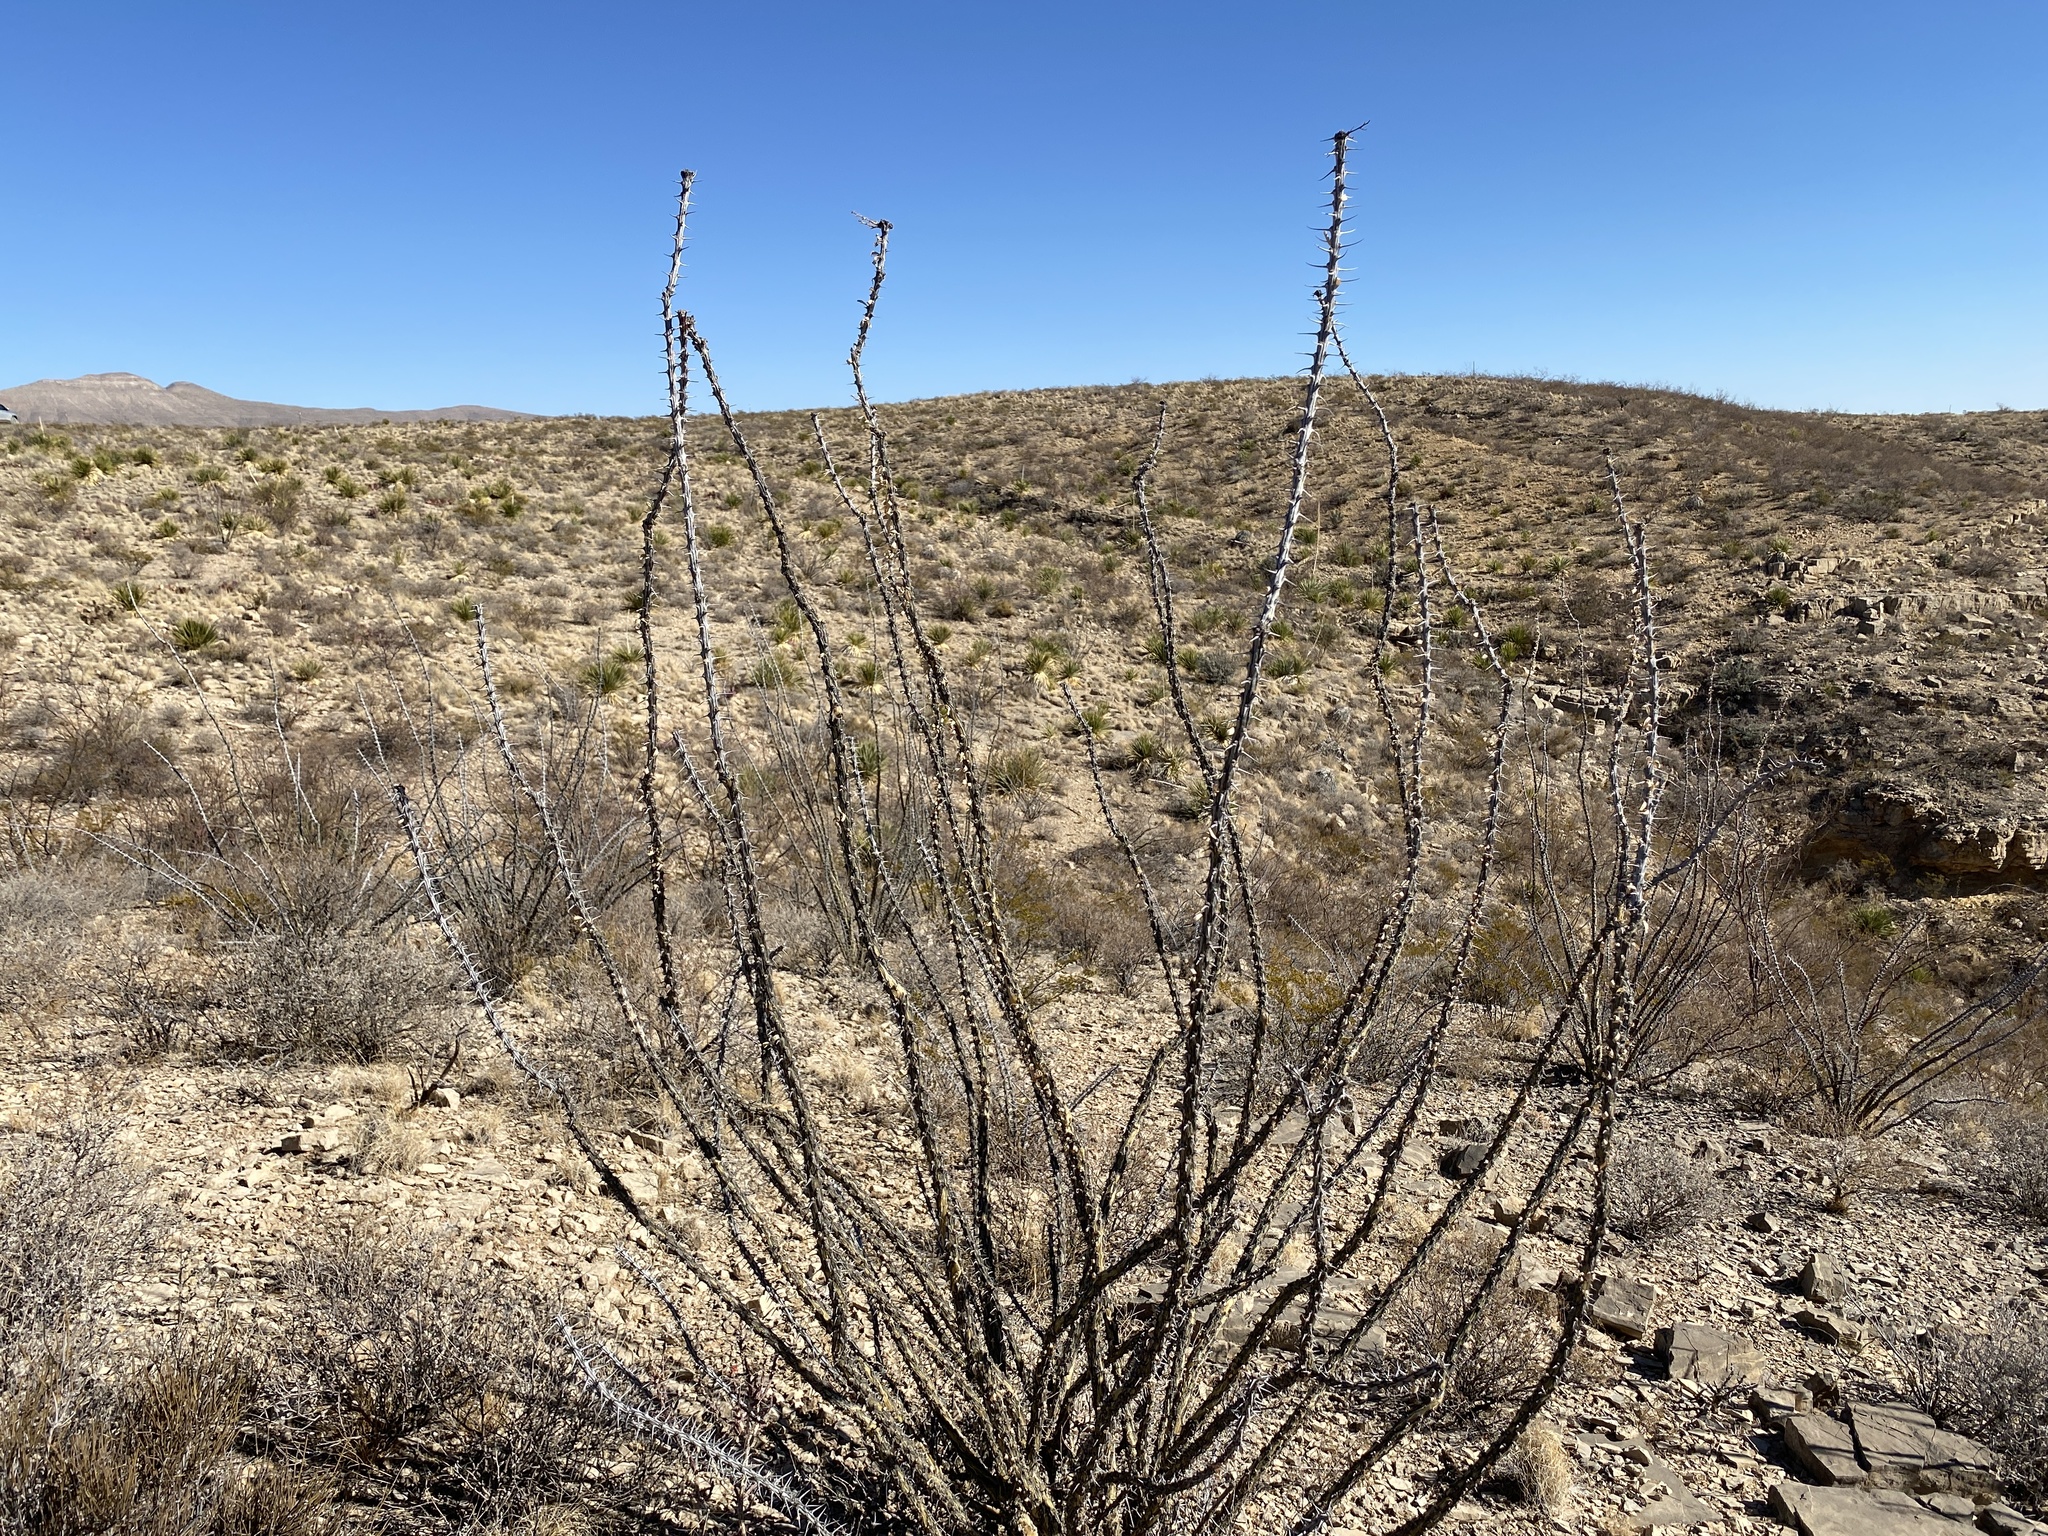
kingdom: Plantae
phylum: Tracheophyta
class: Magnoliopsida
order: Ericales
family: Fouquieriaceae
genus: Fouquieria
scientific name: Fouquieria splendens
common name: Vine-cactus
